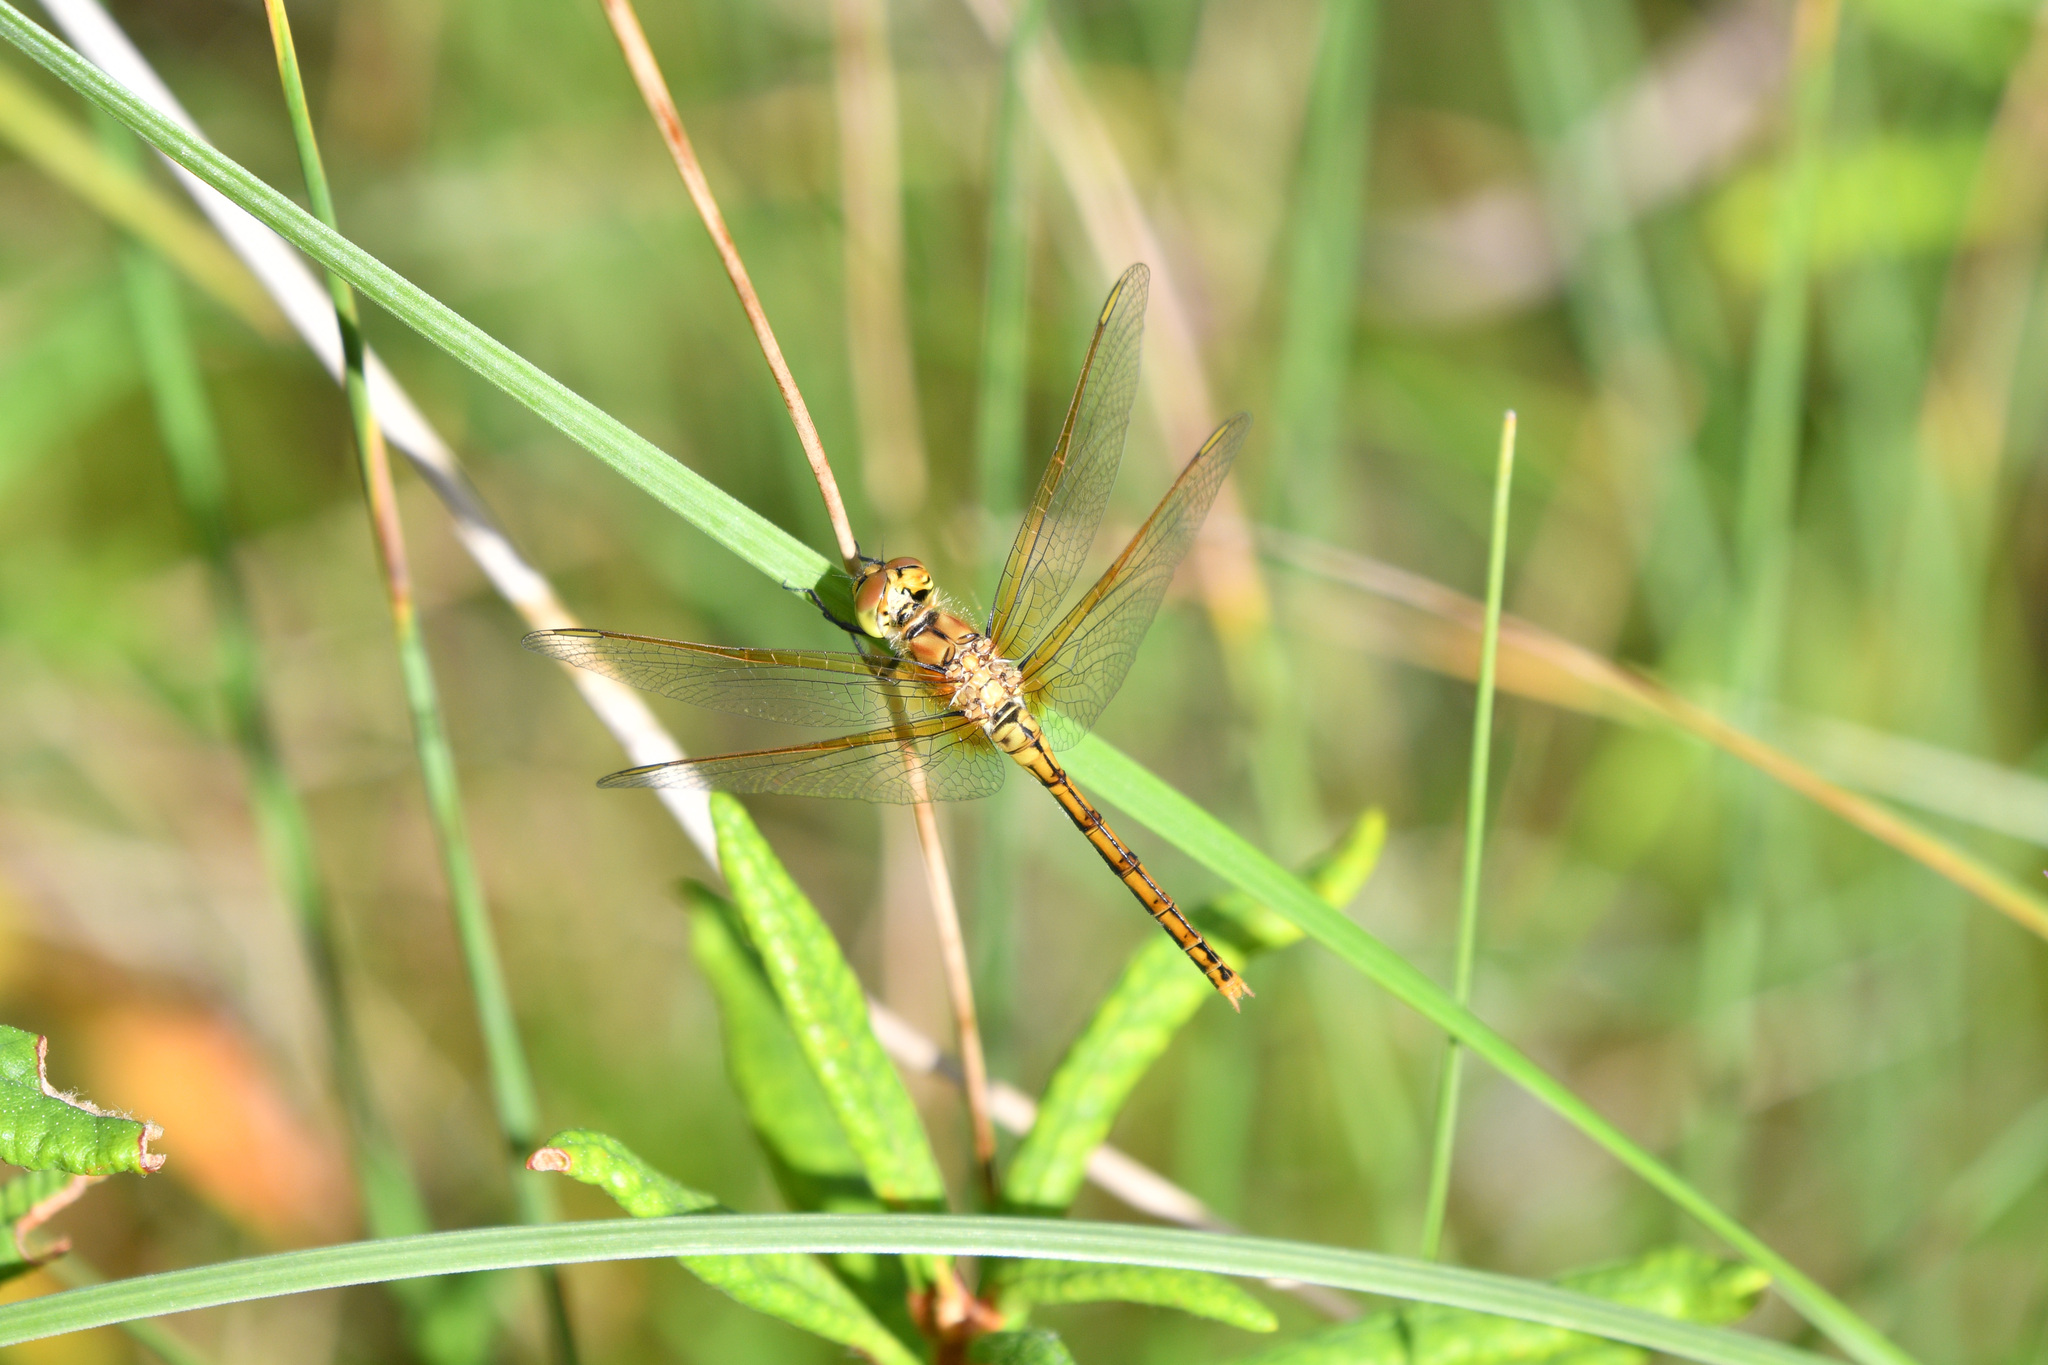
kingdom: Animalia
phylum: Arthropoda
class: Insecta
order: Odonata
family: Libellulidae
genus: Sympetrum
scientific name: Sympetrum costiferum
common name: Saffron-winged meadowhawk
